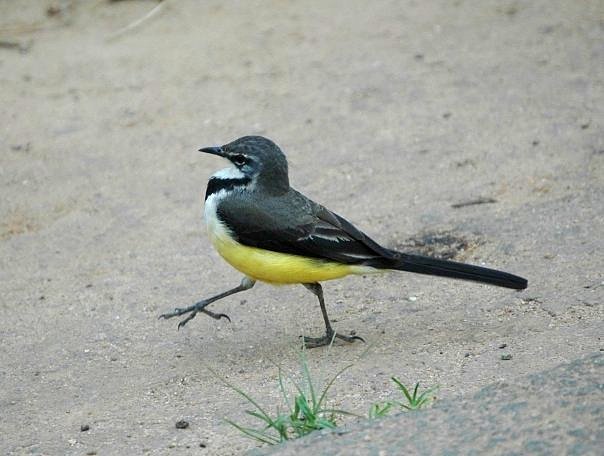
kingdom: Animalia
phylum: Chordata
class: Aves
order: Passeriformes
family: Motacillidae
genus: Motacilla
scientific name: Motacilla flaviventris
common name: Madagascar wagtail
